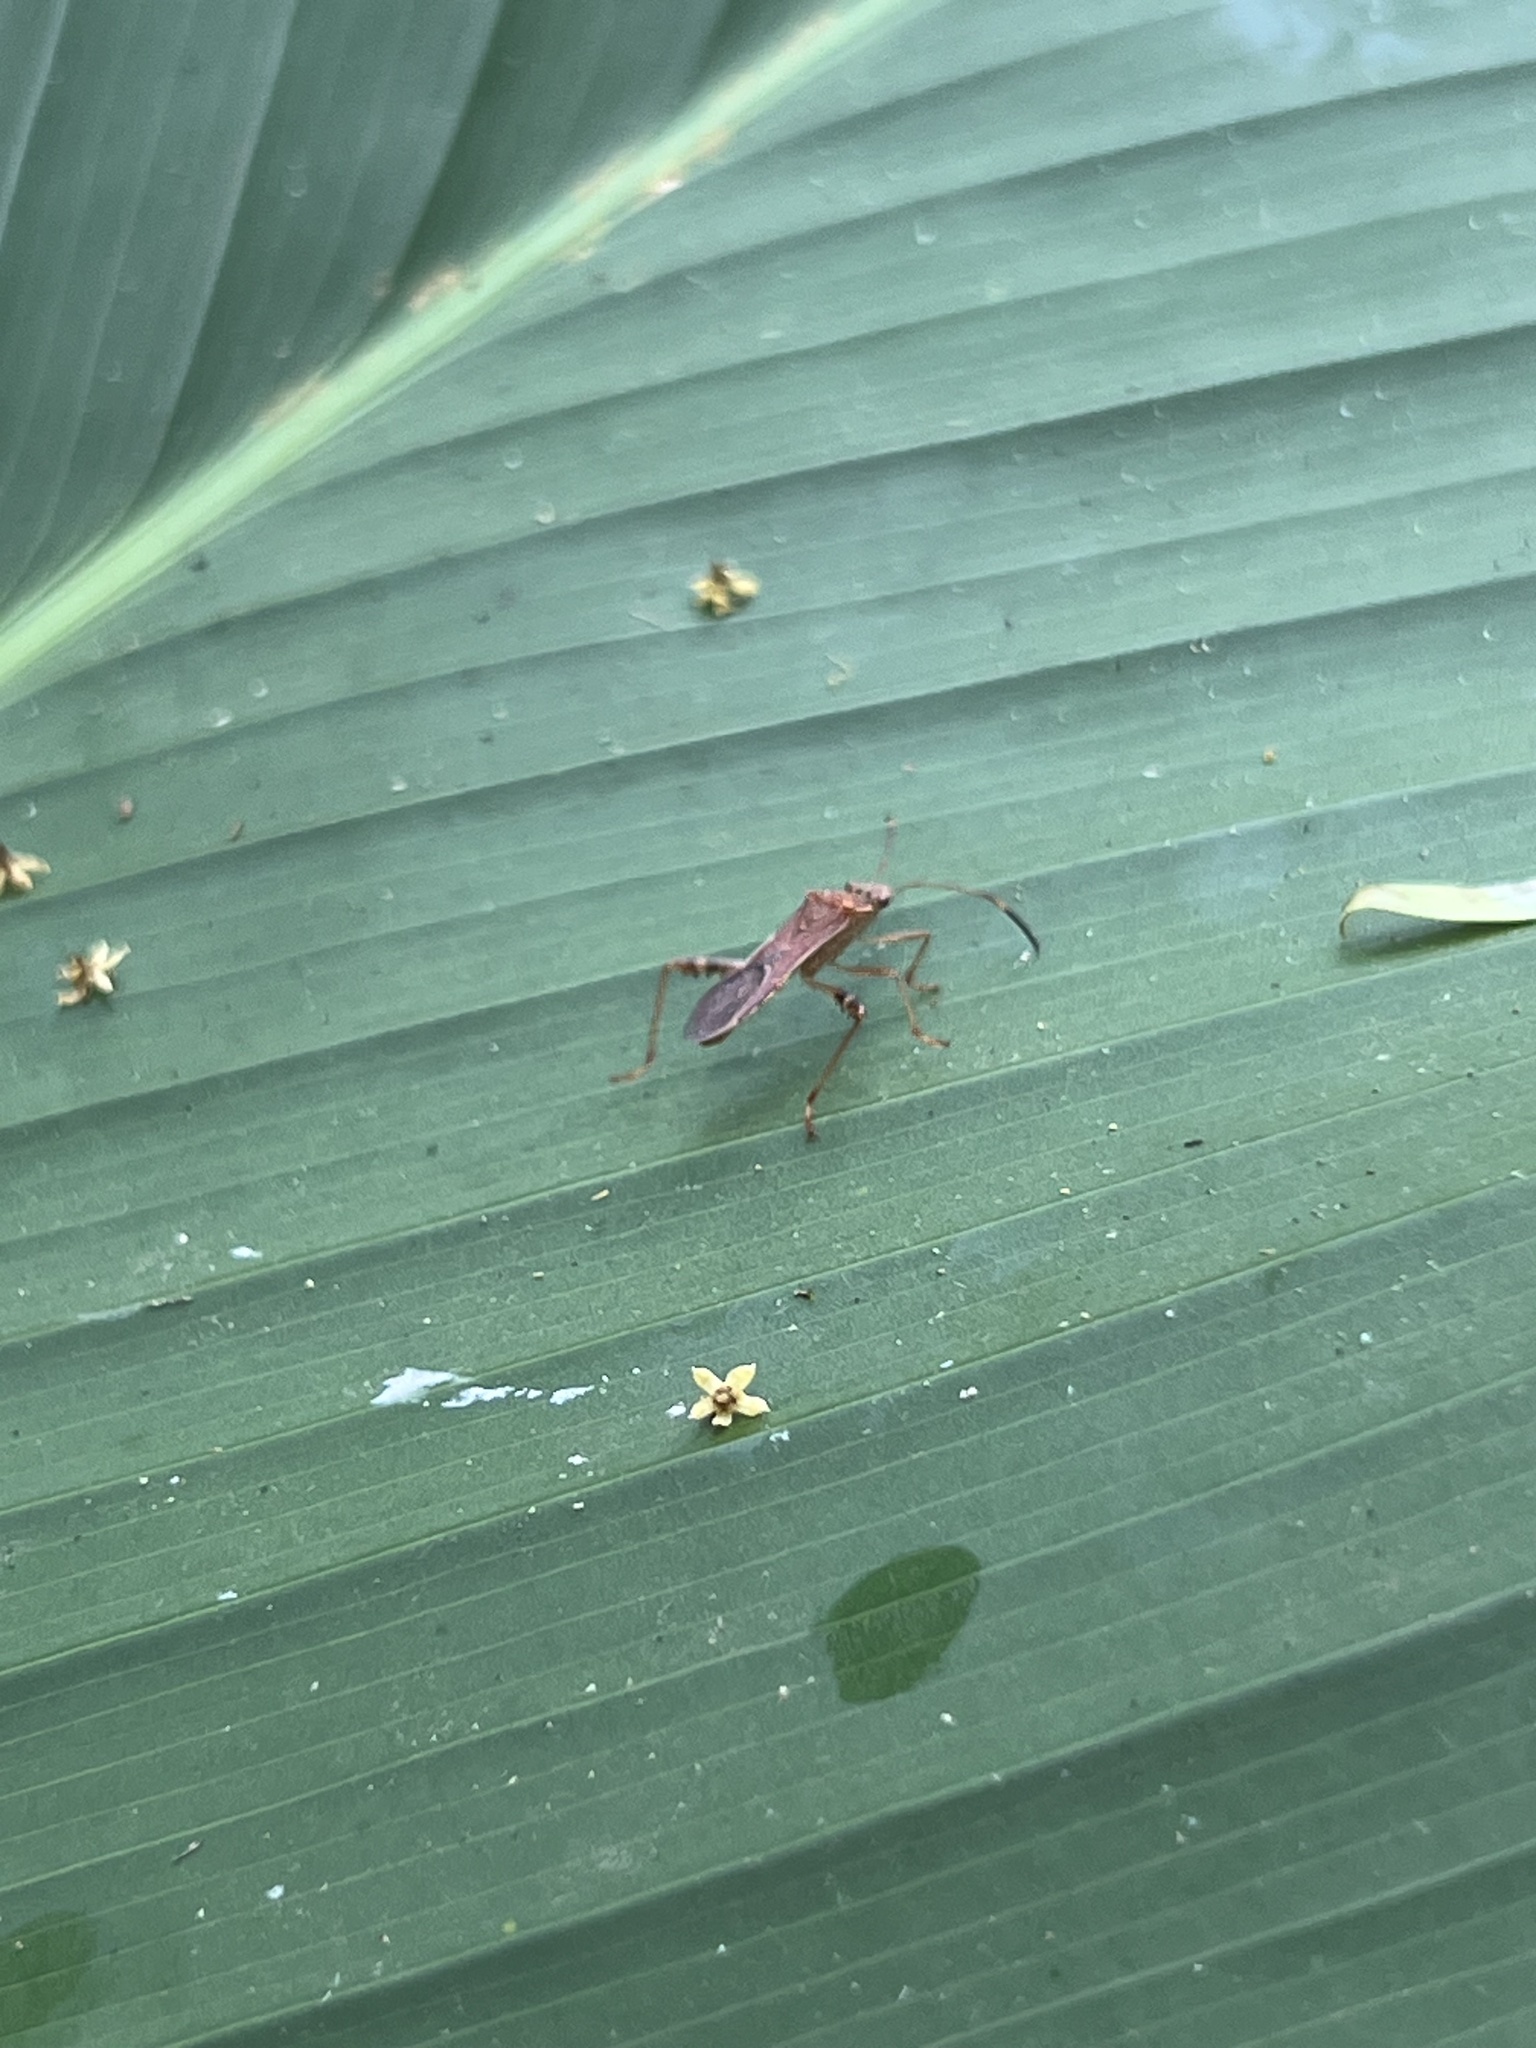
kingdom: Animalia
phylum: Arthropoda
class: Insecta
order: Hemiptera
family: Alydidae
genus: Burtinus
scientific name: Burtinus notatipennis
